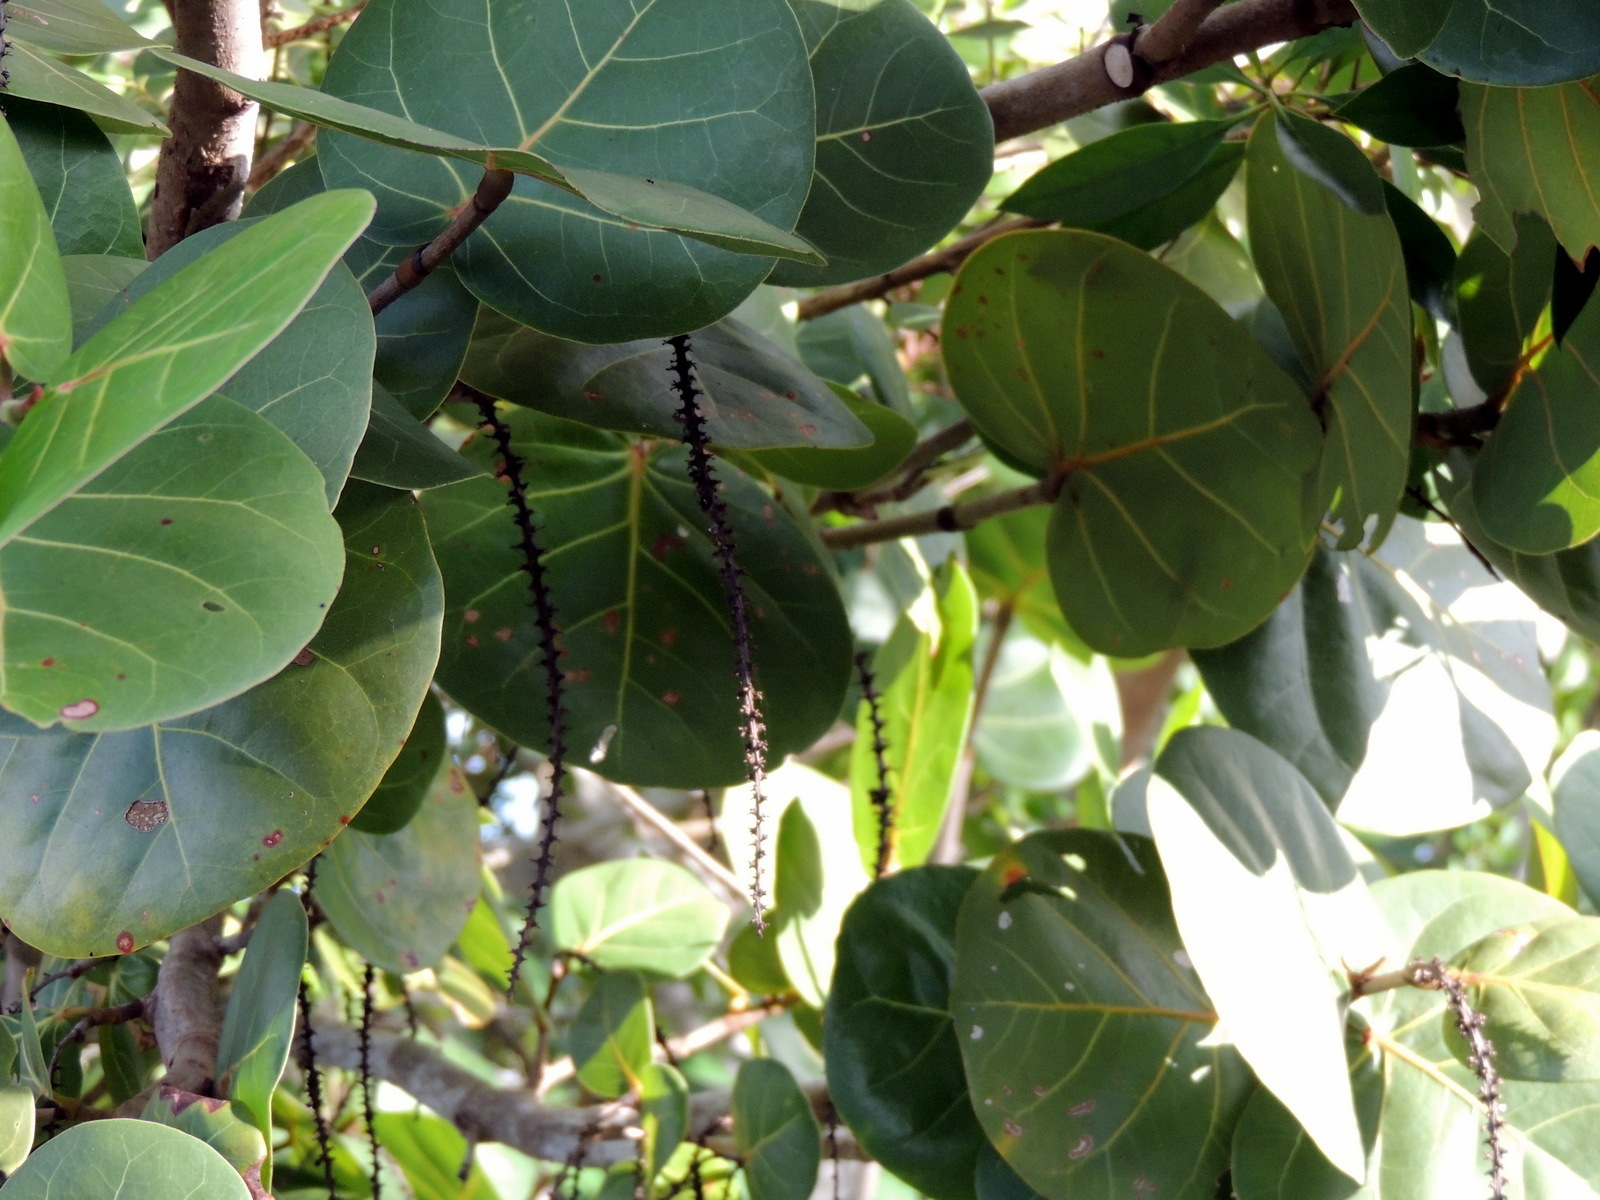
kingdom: Plantae
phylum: Tracheophyta
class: Magnoliopsida
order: Caryophyllales
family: Polygonaceae
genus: Coccoloba
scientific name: Coccoloba uvifera
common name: Seagrape
